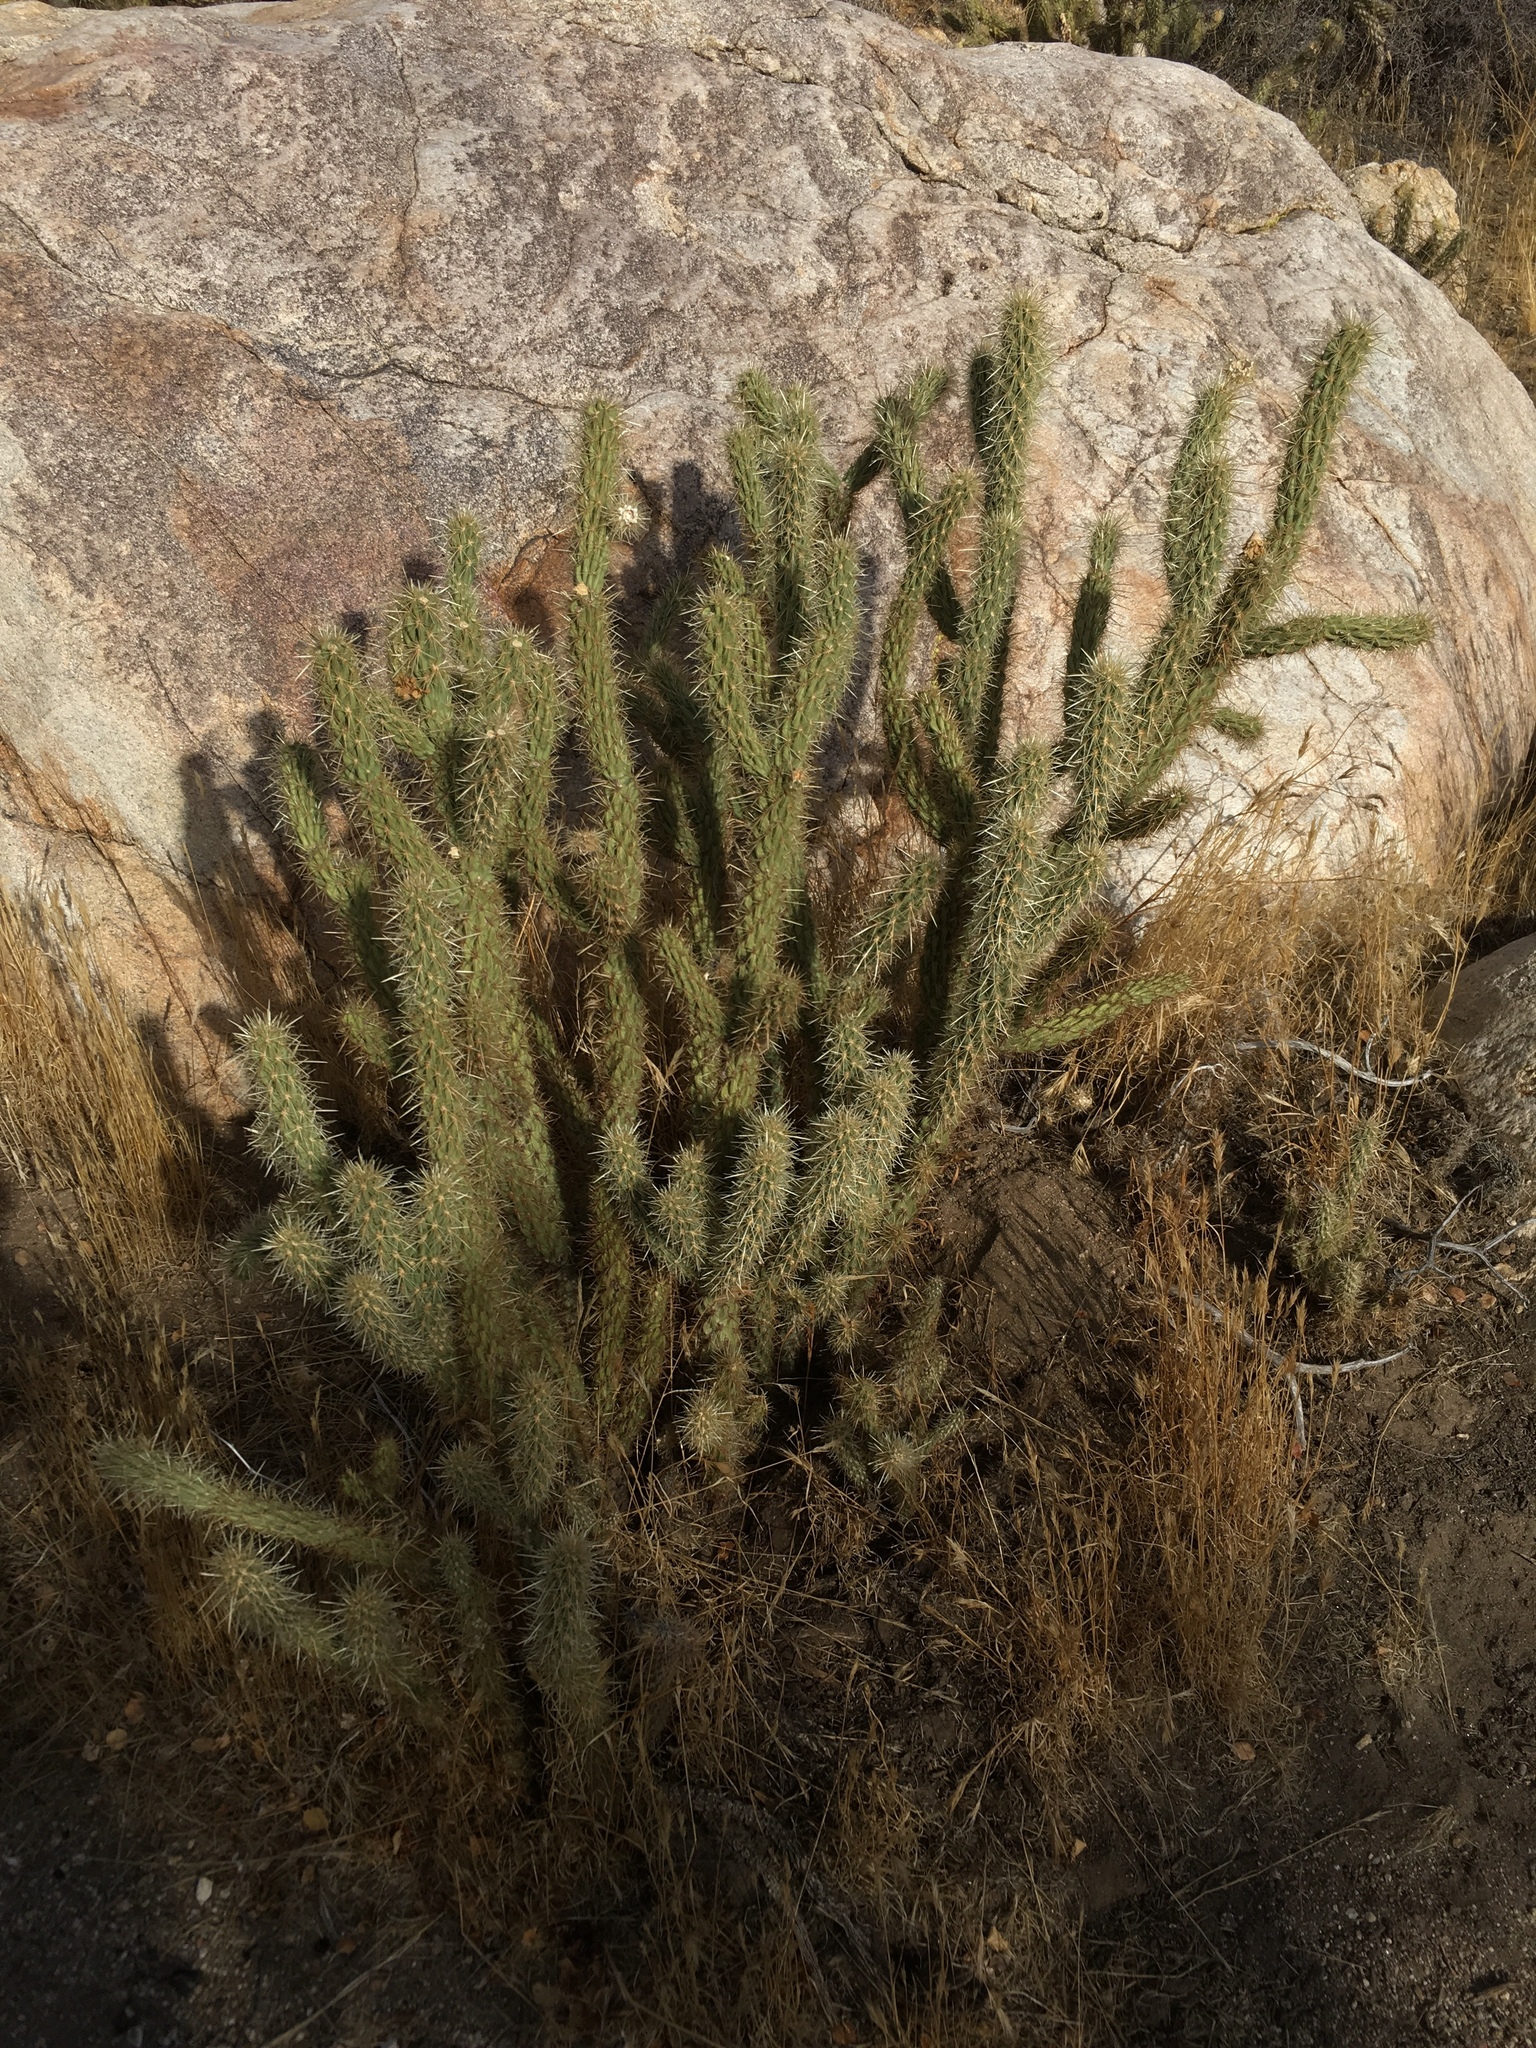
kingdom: Plantae
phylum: Tracheophyta
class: Magnoliopsida
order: Caryophyllales
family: Cactaceae
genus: Cylindropuntia
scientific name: Cylindropuntia ganderi
